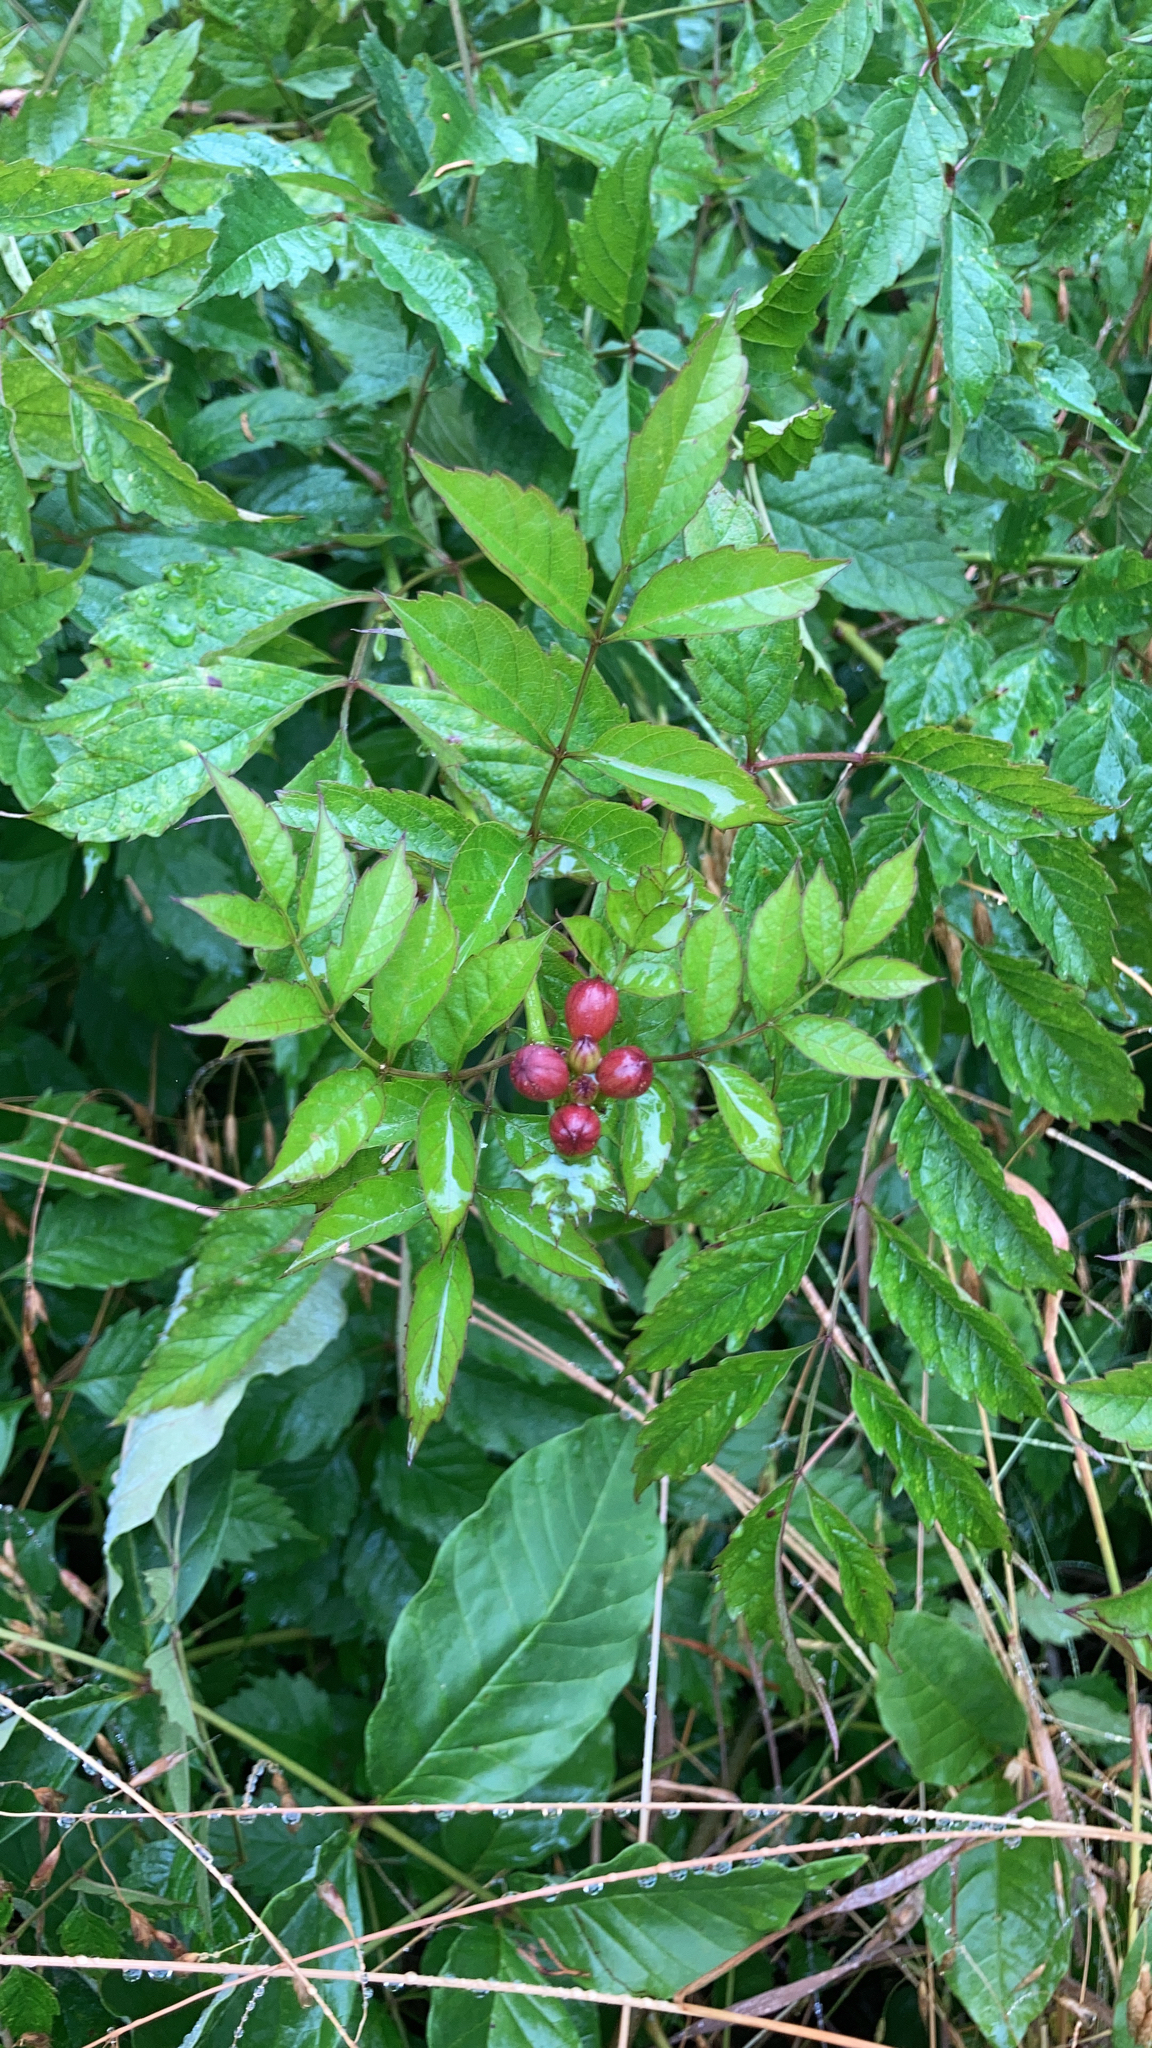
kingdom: Plantae
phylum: Tracheophyta
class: Magnoliopsida
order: Lamiales
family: Bignoniaceae
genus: Campsis
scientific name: Campsis radicans
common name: Trumpet-creeper
